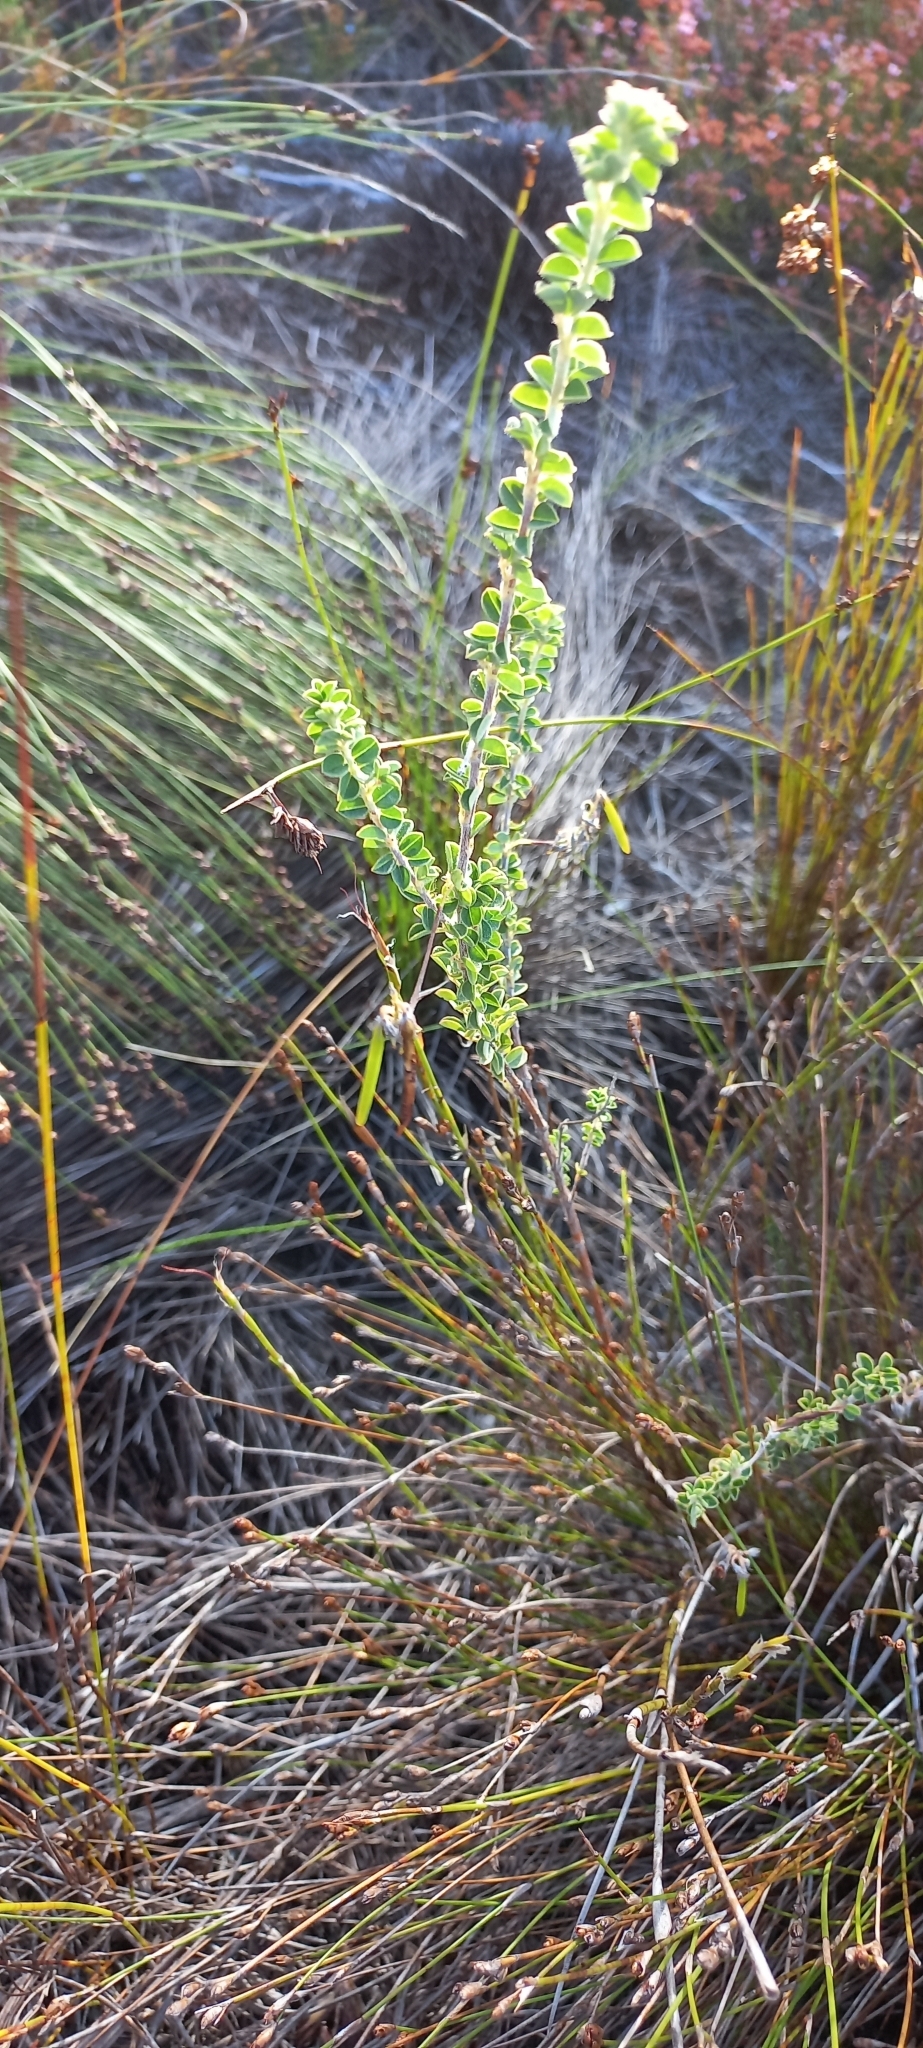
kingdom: Plantae
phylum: Tracheophyta
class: Magnoliopsida
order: Fabales
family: Fabaceae
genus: Indigofera
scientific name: Indigofera alopecuroides
